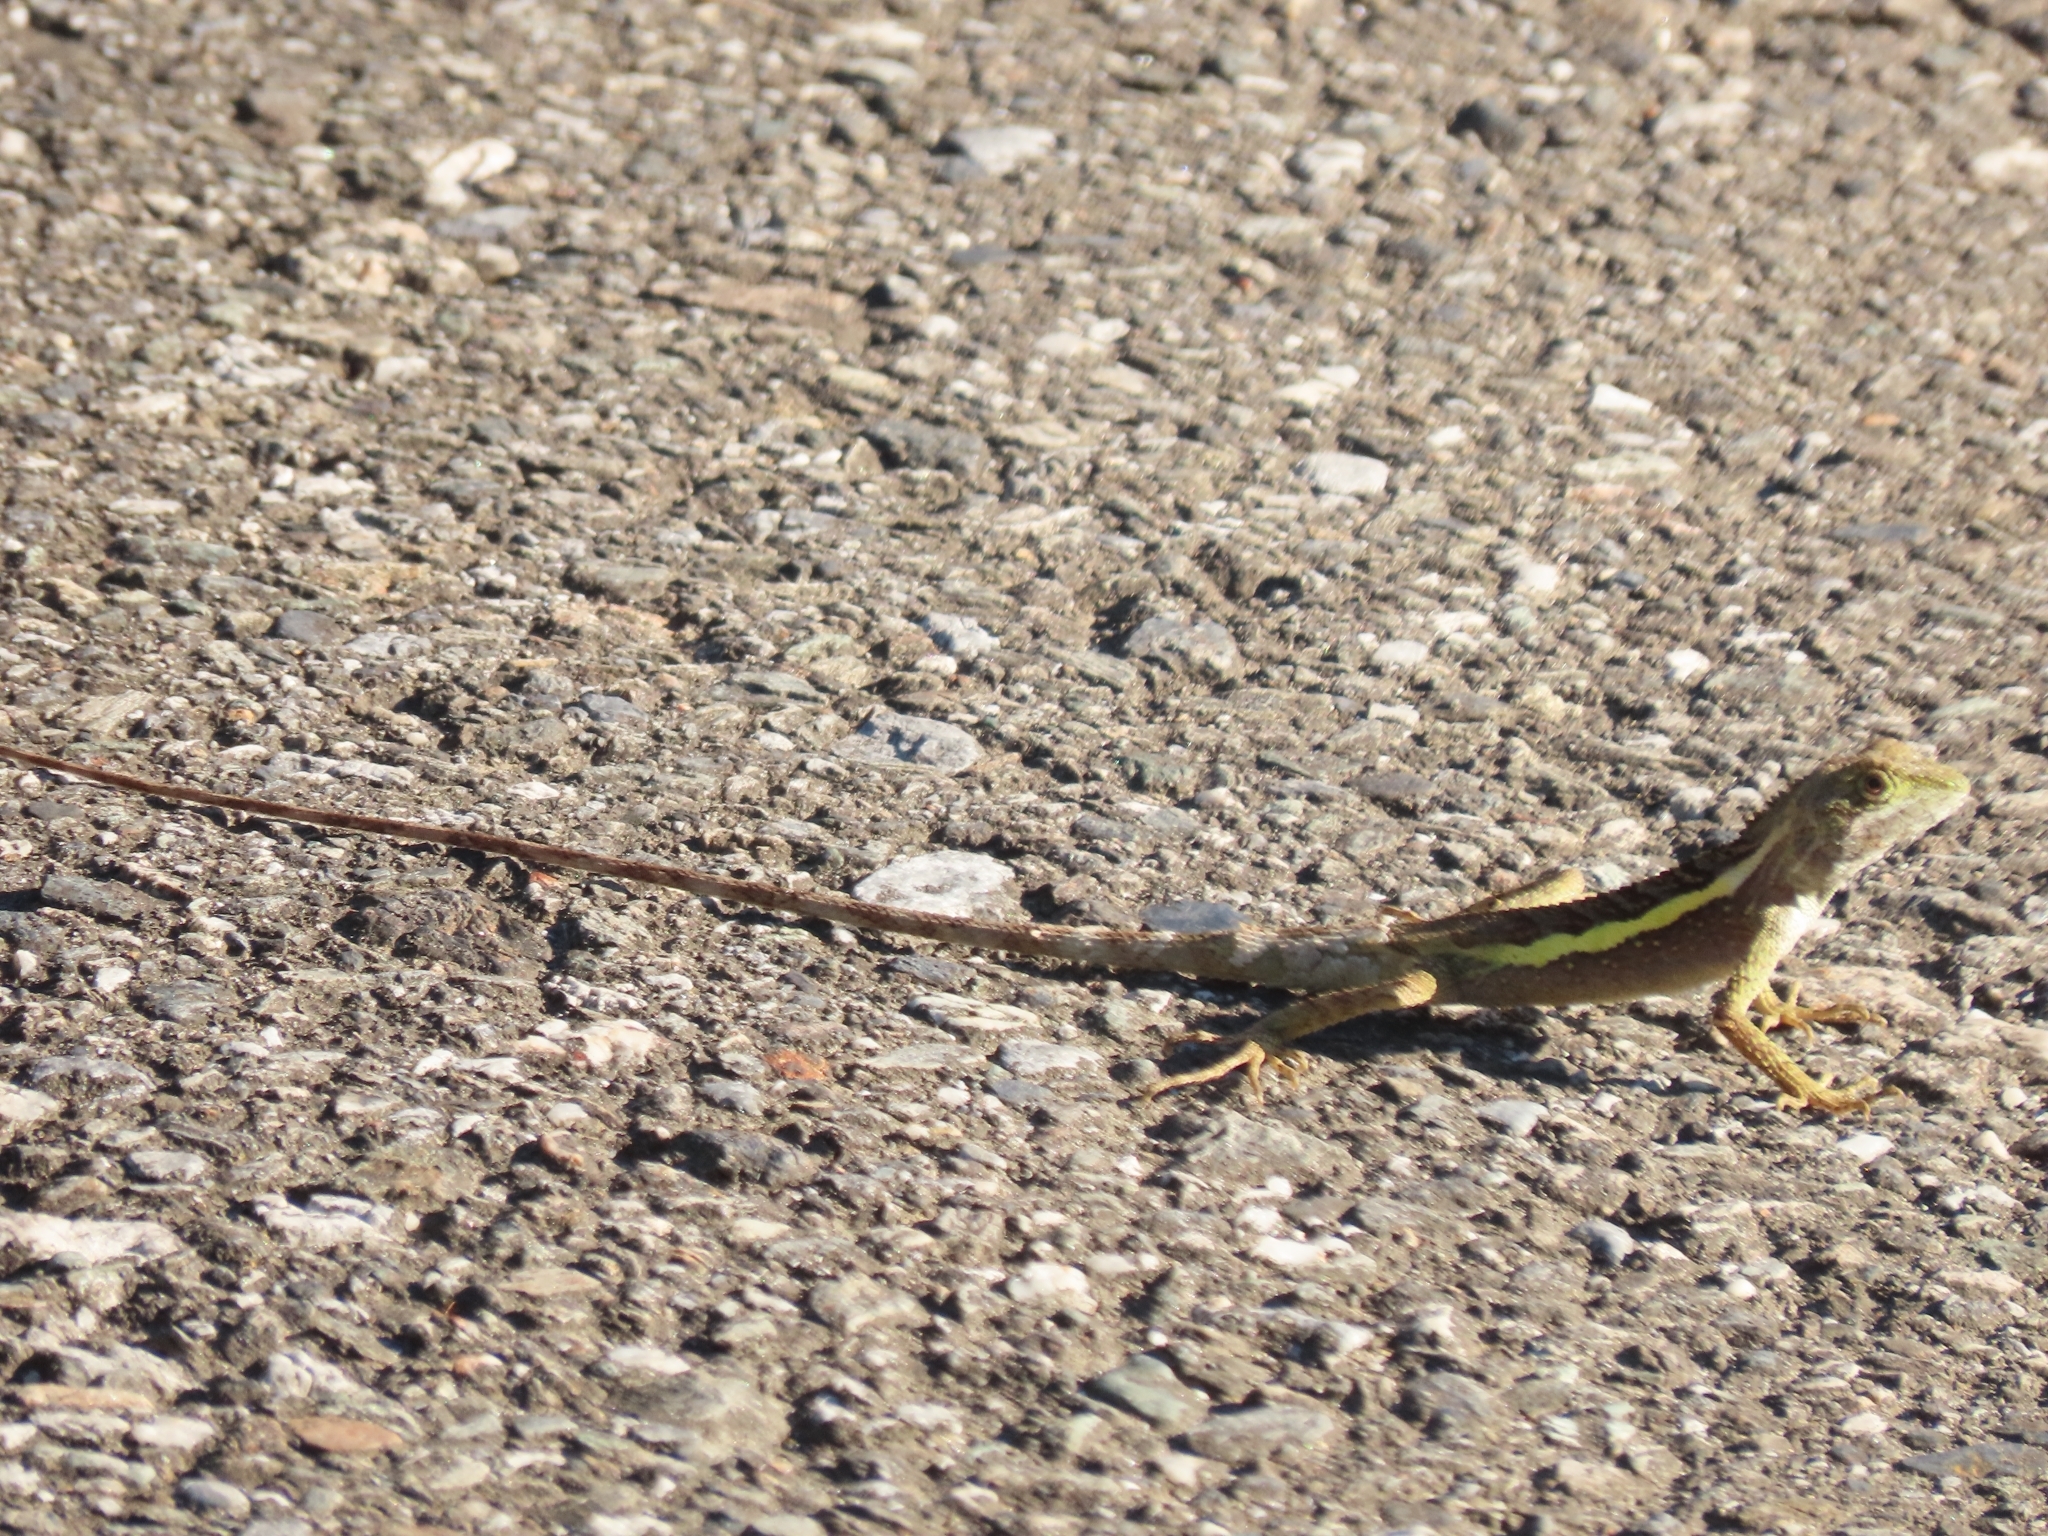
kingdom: Animalia
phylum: Chordata
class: Squamata
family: Agamidae
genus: Diploderma
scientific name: Diploderma swinhonis
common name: Taiwan japalure
